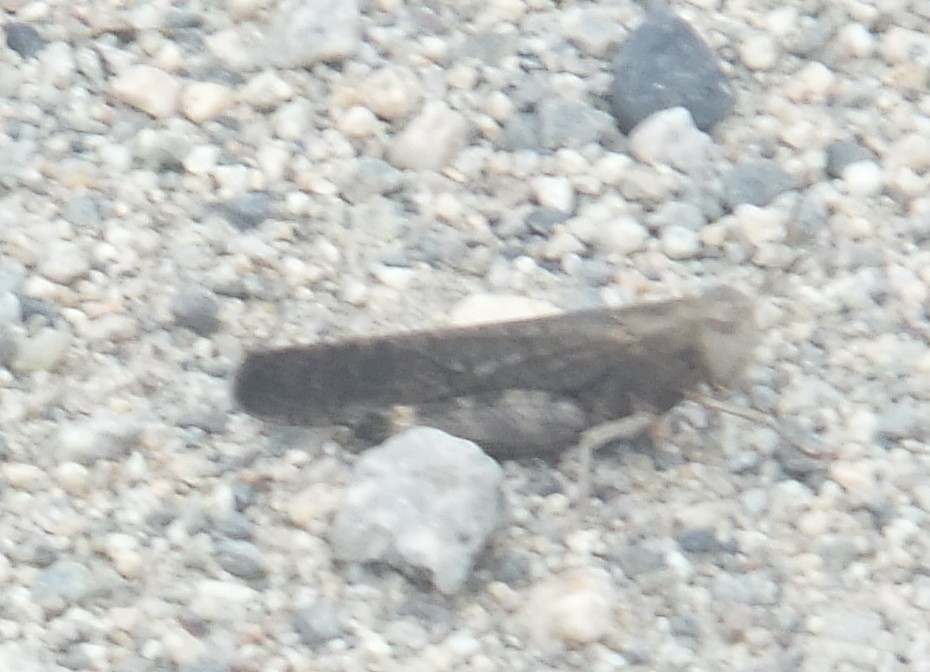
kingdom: Animalia
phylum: Arthropoda
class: Insecta
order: Orthoptera
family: Acrididae
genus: Arphia
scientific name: Arphia pseudo-nietana
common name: Red-winged grasshopper
